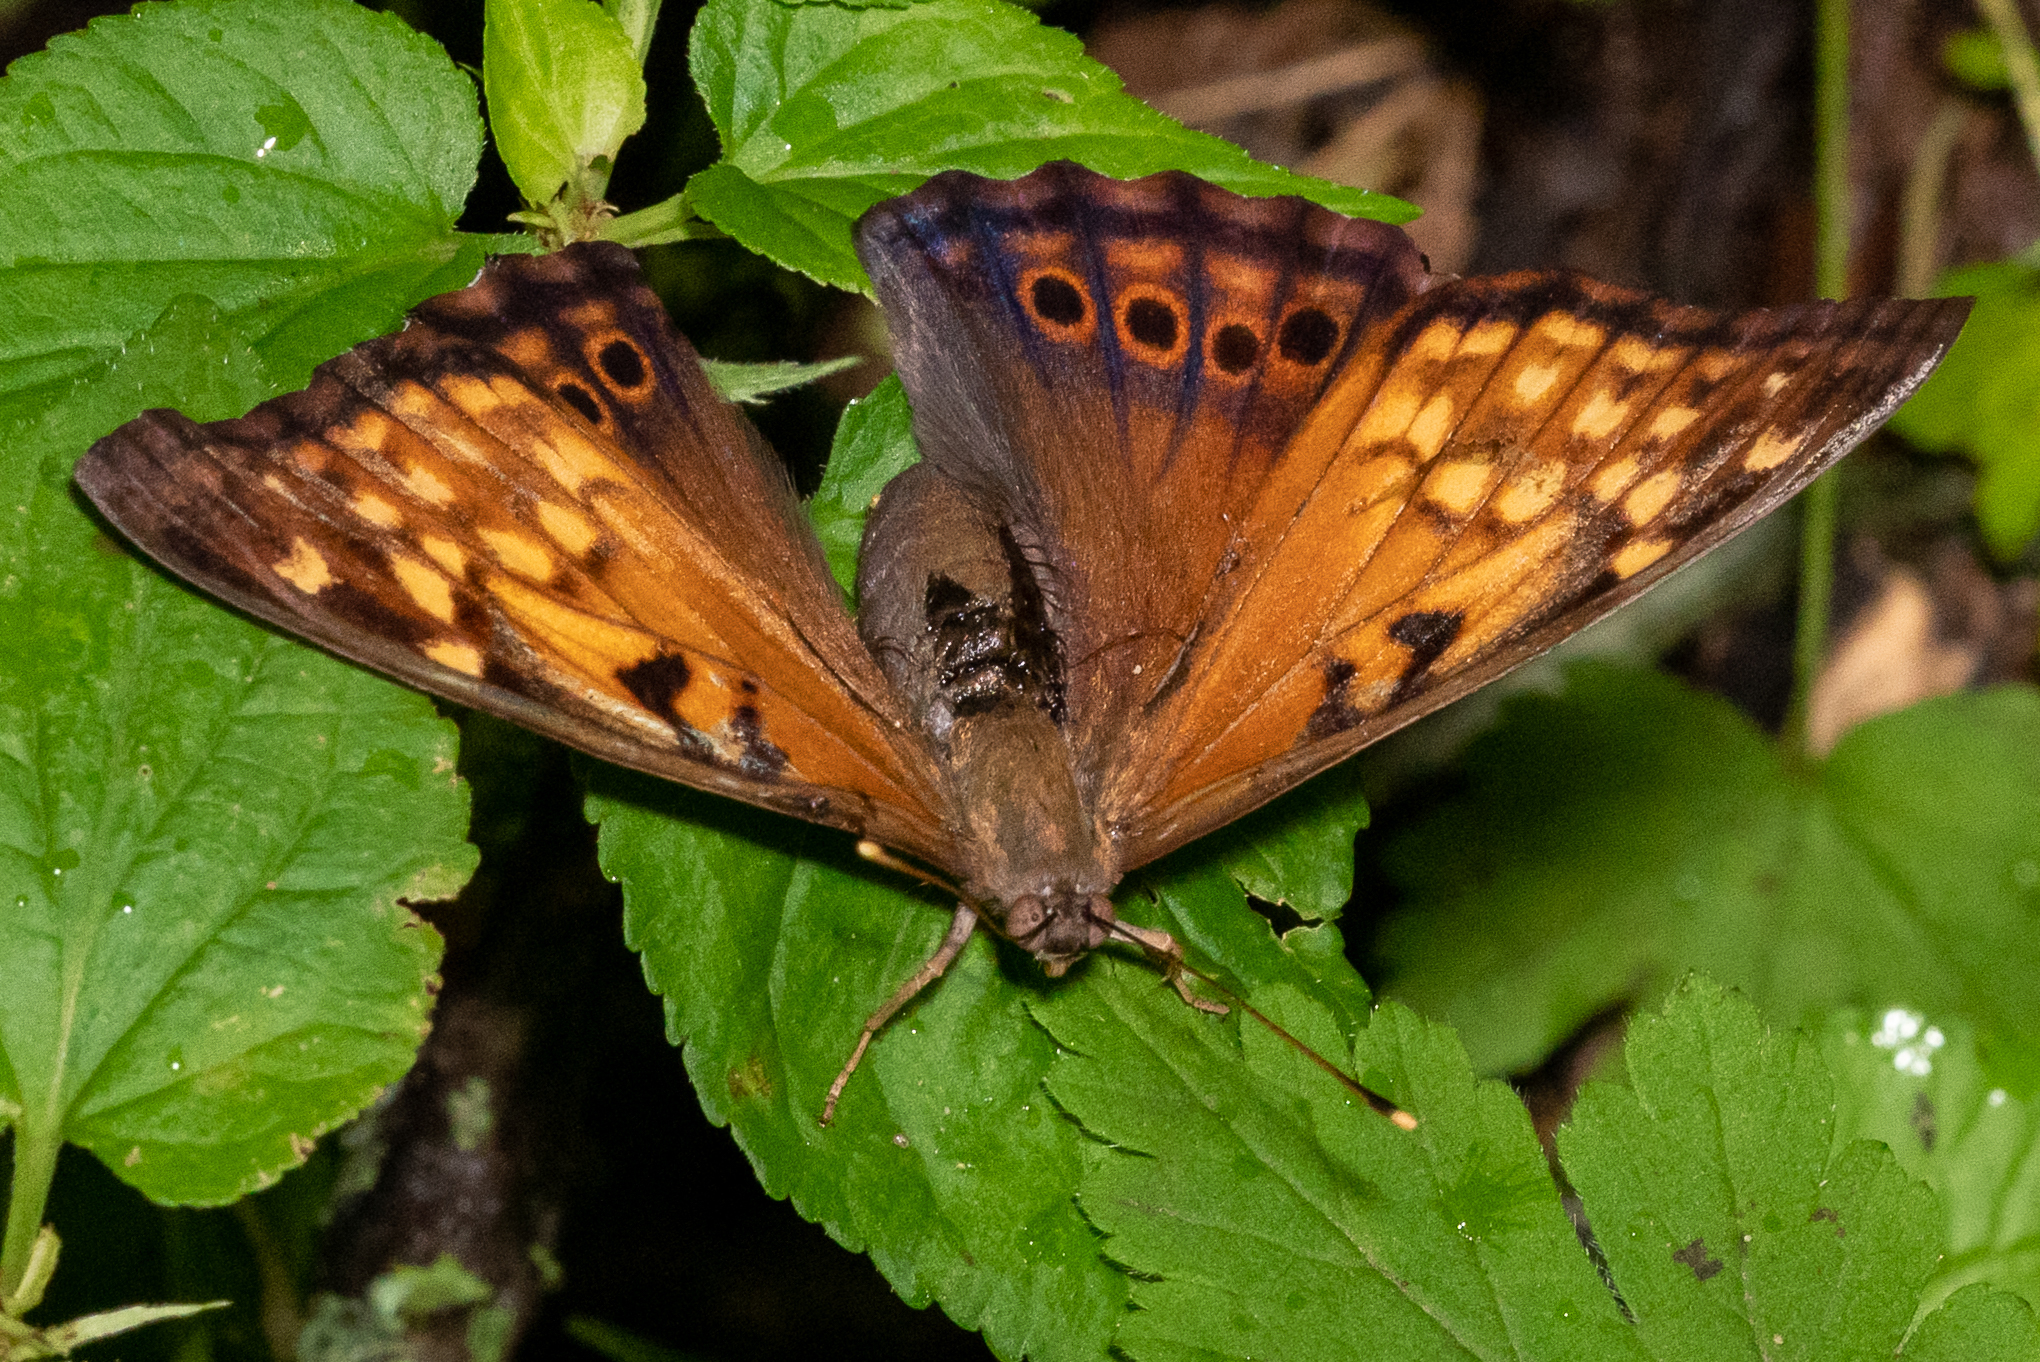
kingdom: Animalia
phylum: Arthropoda
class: Insecta
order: Lepidoptera
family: Nymphalidae
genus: Asterocampa
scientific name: Asterocampa clyton
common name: Tawny emperor
